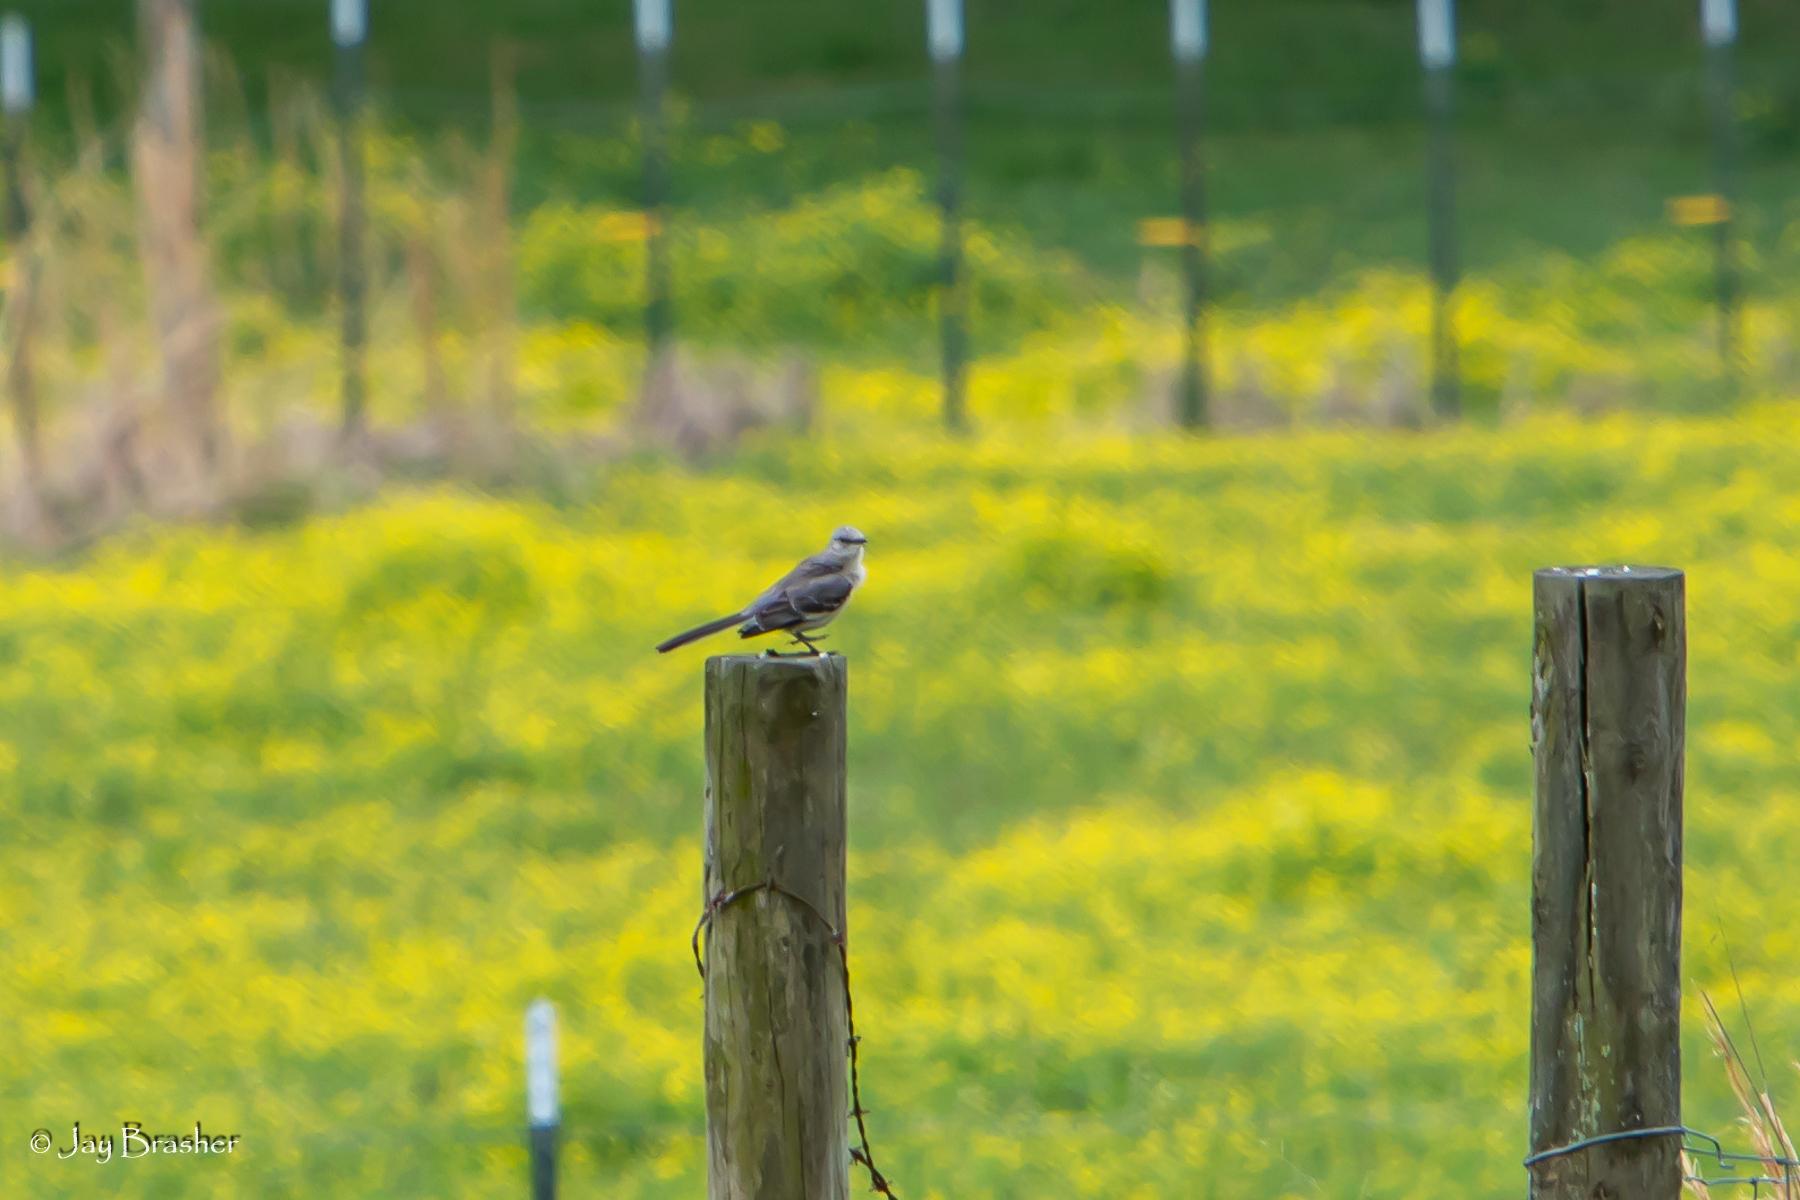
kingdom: Animalia
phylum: Chordata
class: Aves
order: Passeriformes
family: Mimidae
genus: Mimus
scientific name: Mimus polyglottos
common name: Northern mockingbird
